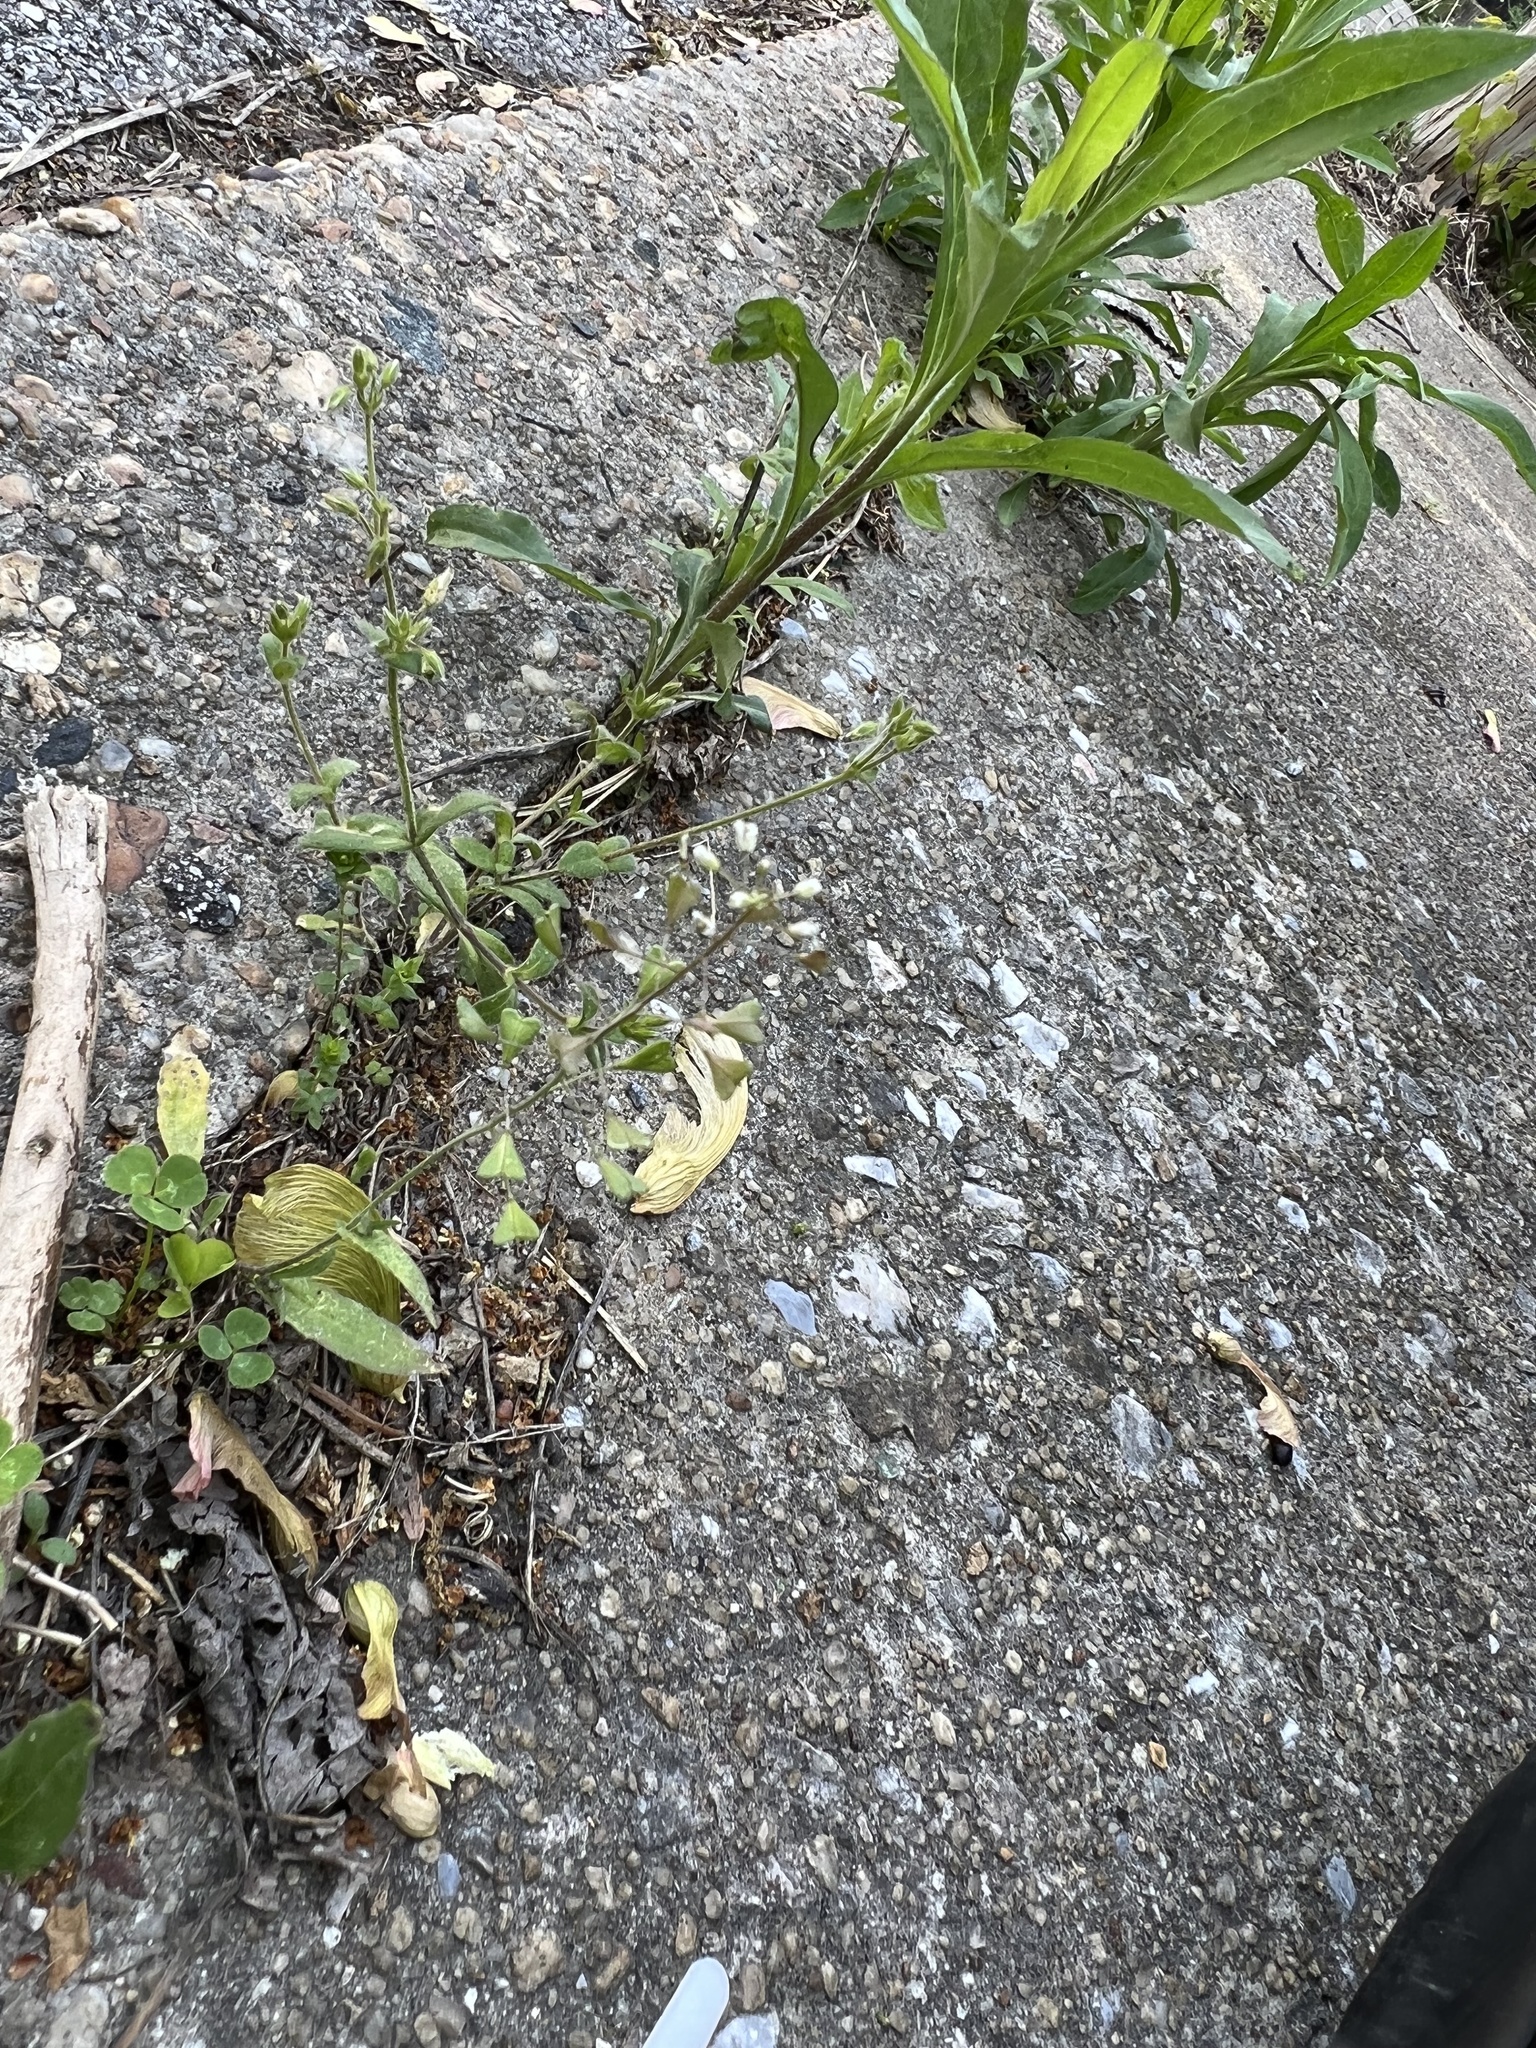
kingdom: Plantae
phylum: Tracheophyta
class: Magnoliopsida
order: Brassicales
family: Brassicaceae
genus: Capsella
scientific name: Capsella bursa-pastoris
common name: Shepherd's purse
